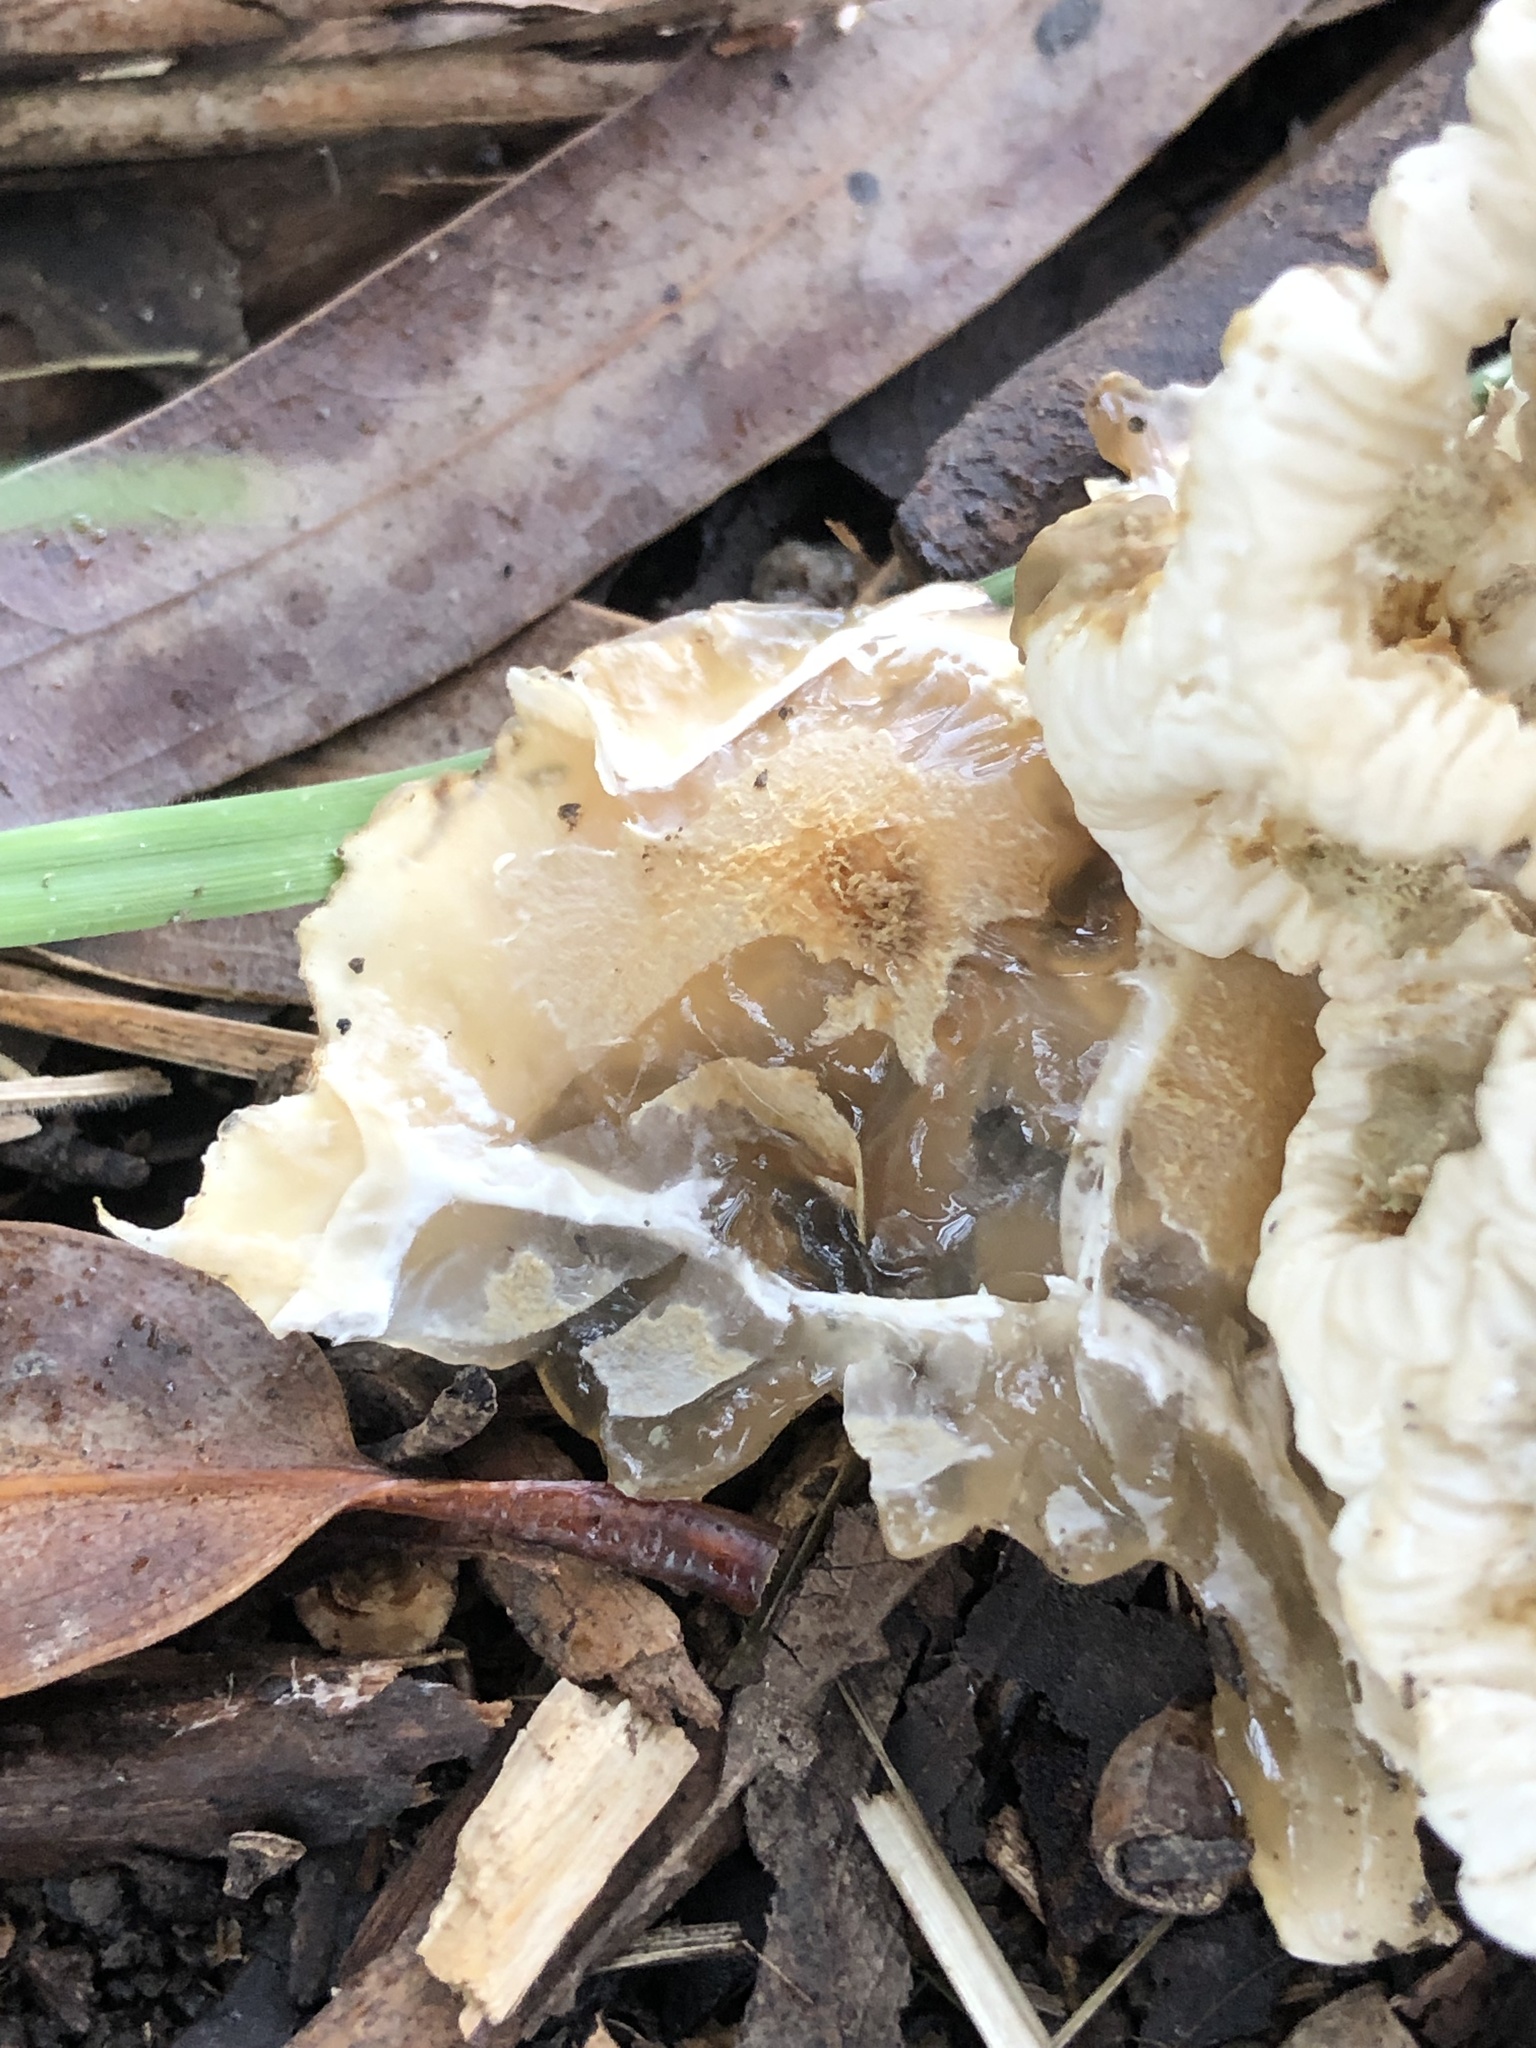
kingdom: Fungi
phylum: Basidiomycota
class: Agaricomycetes
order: Phallales
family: Phallaceae
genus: Ileodictyon
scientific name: Ileodictyon cibarium
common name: Basket fungus
